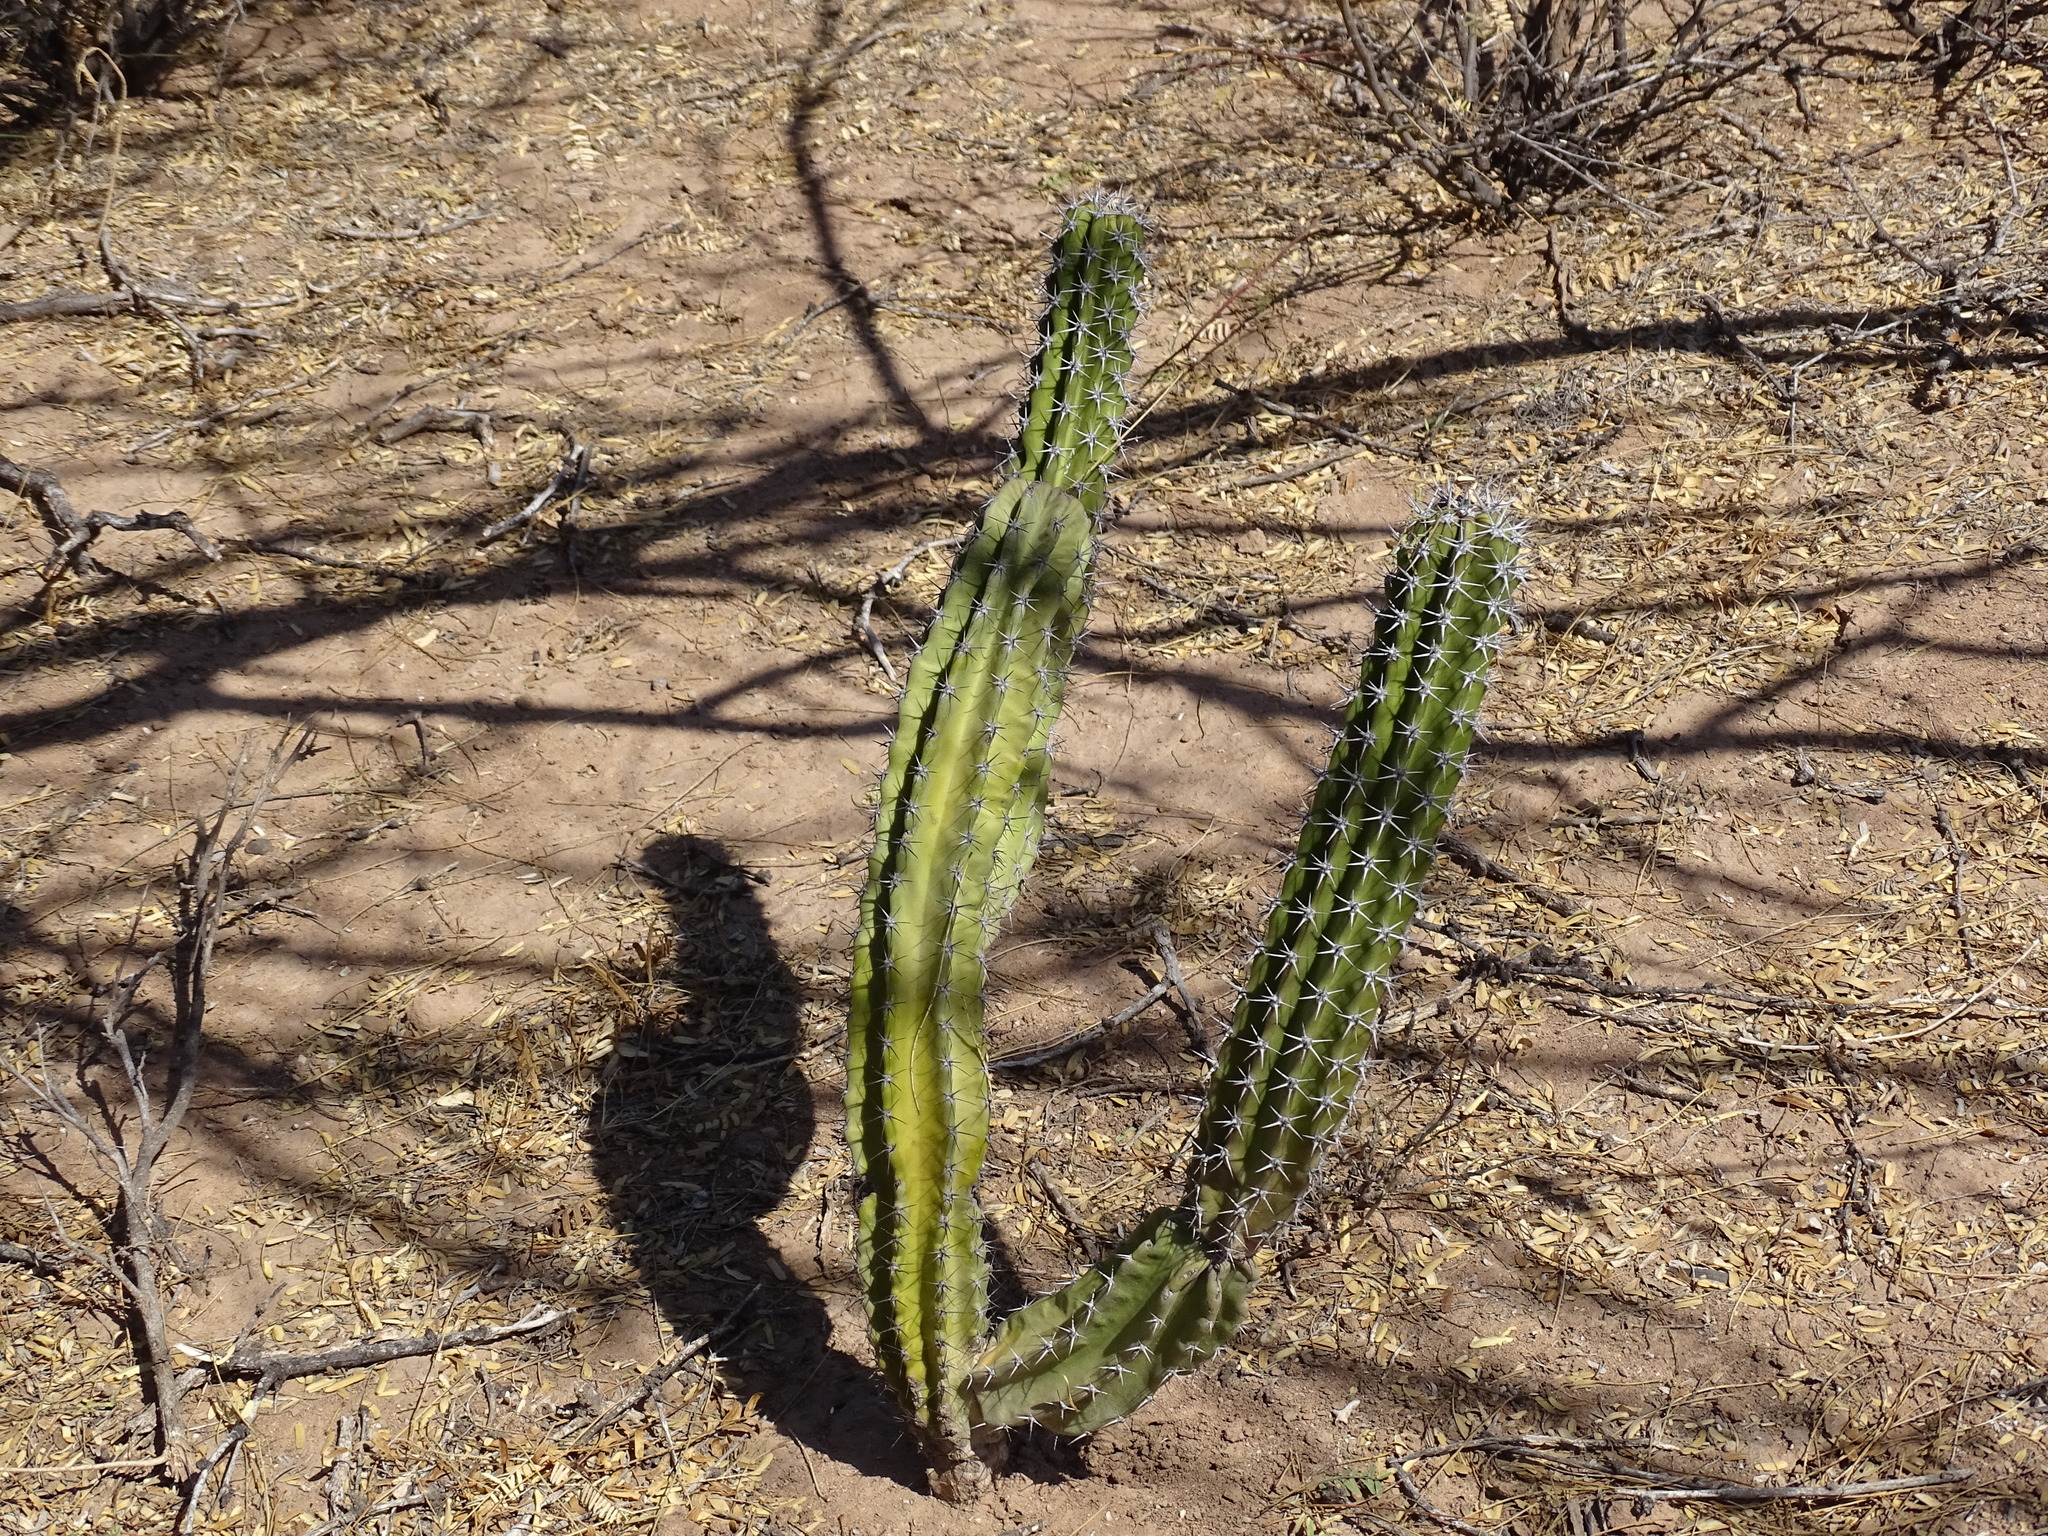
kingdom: Plantae
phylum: Tracheophyta
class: Magnoliopsida
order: Caryophyllales
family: Cactaceae
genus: Pachycereus
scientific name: Pachycereus pecten-aboriginum
